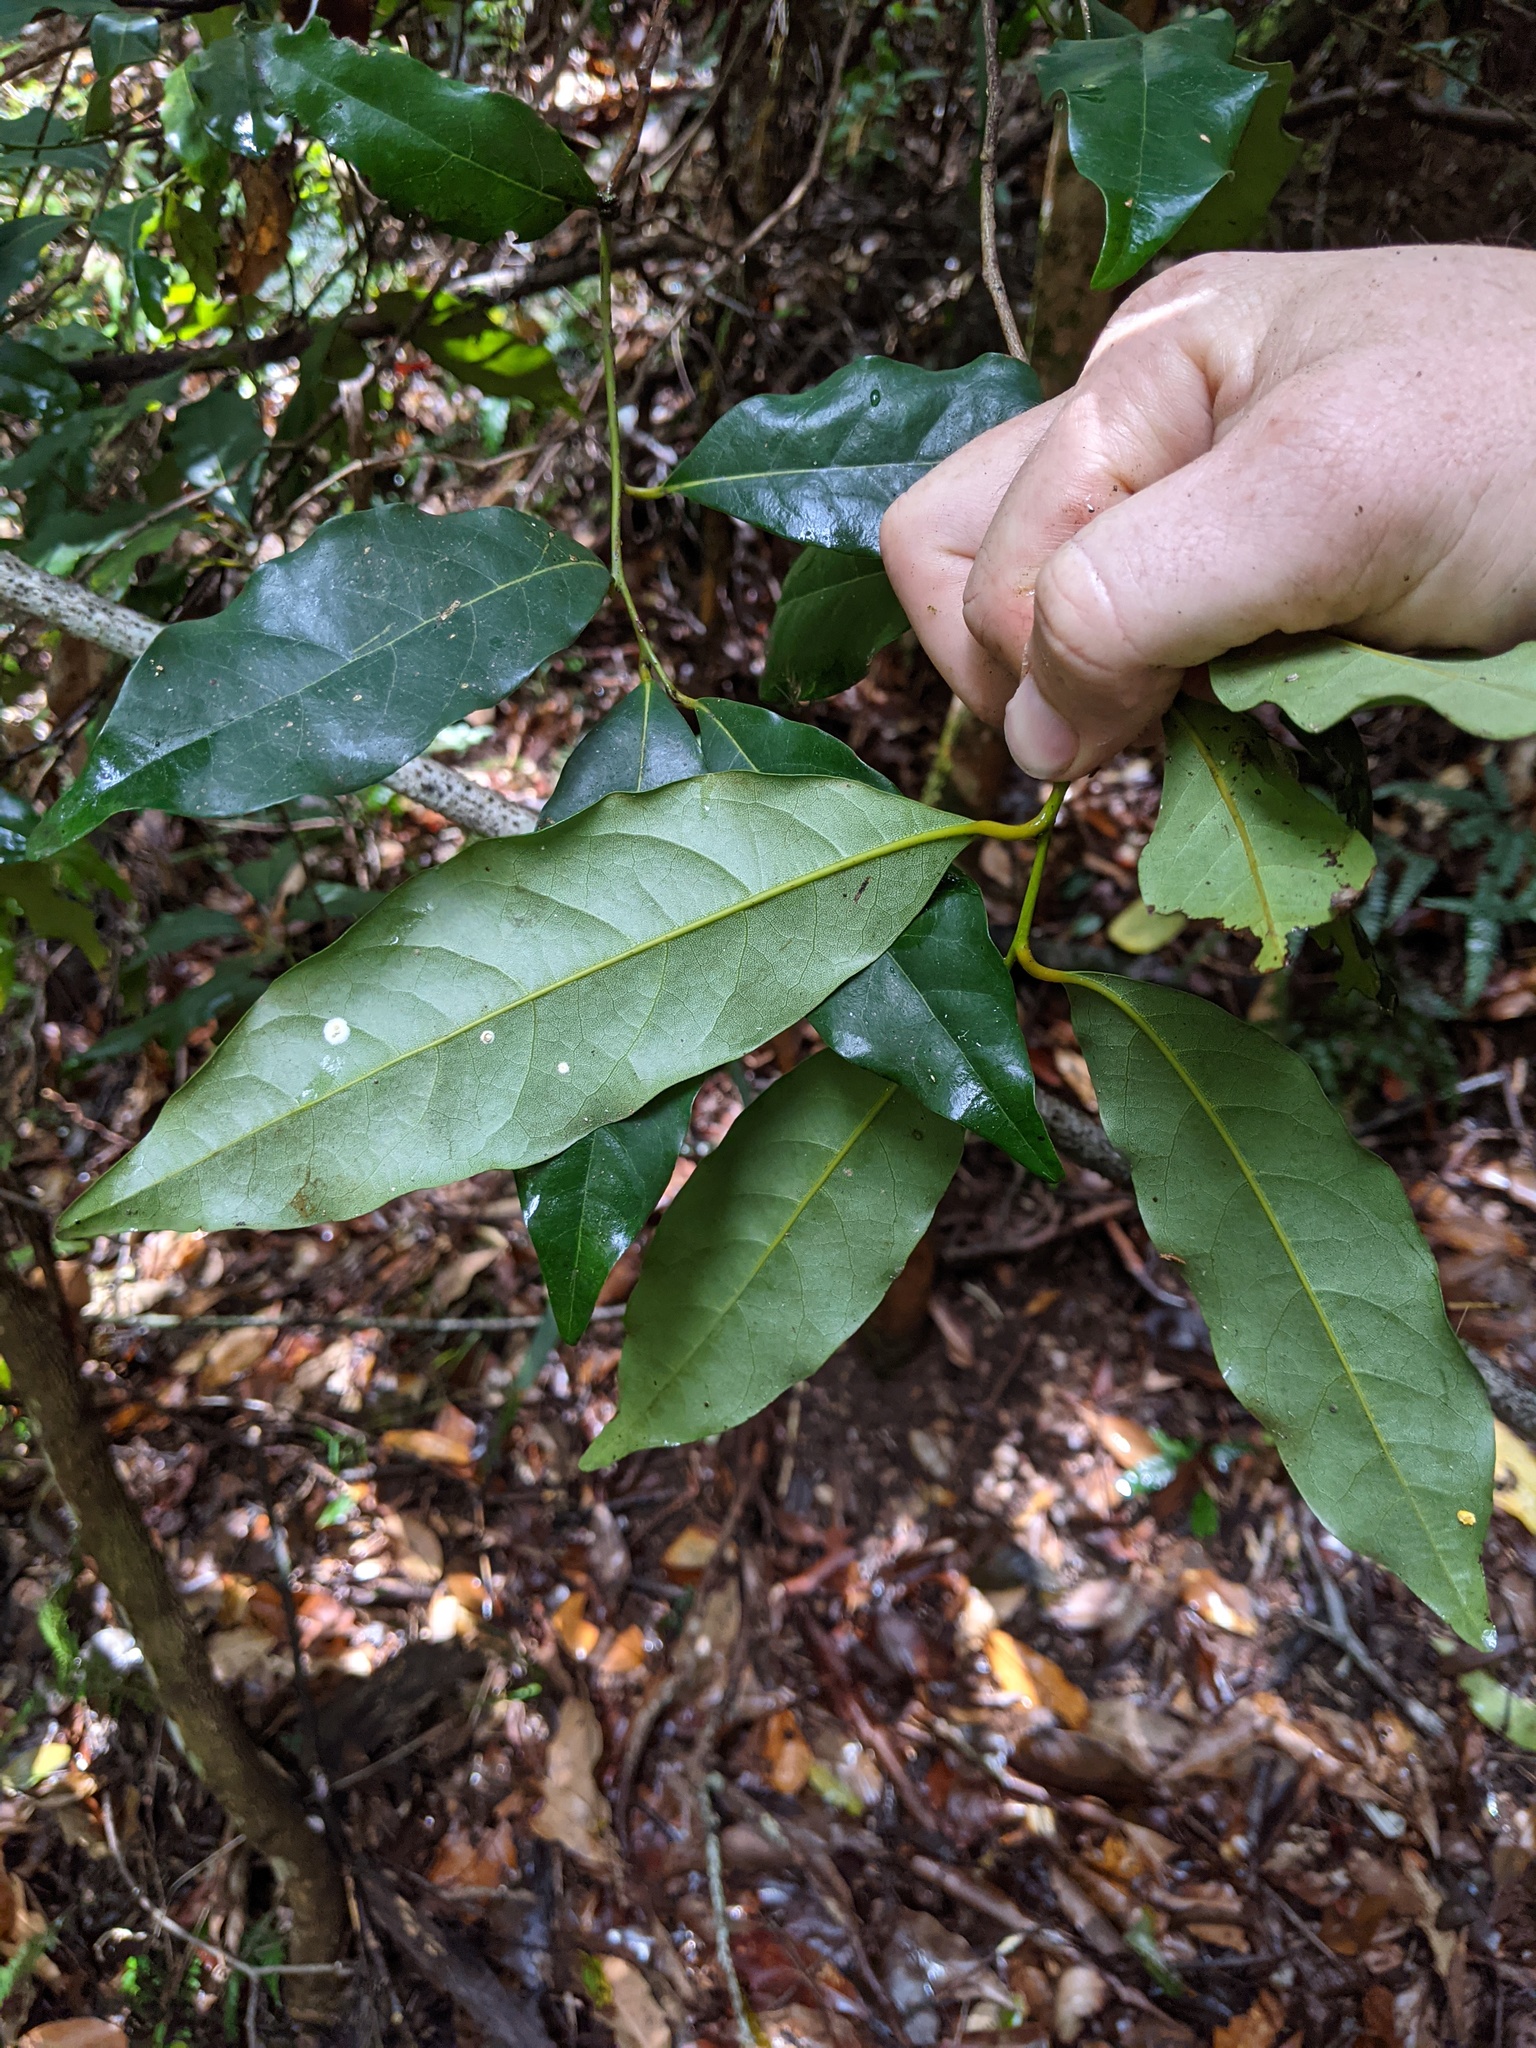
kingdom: Plantae
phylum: Tracheophyta
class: Magnoliopsida
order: Laurales
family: Lauraceae
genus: Cryptocarya
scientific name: Cryptocarya macdonaldii
